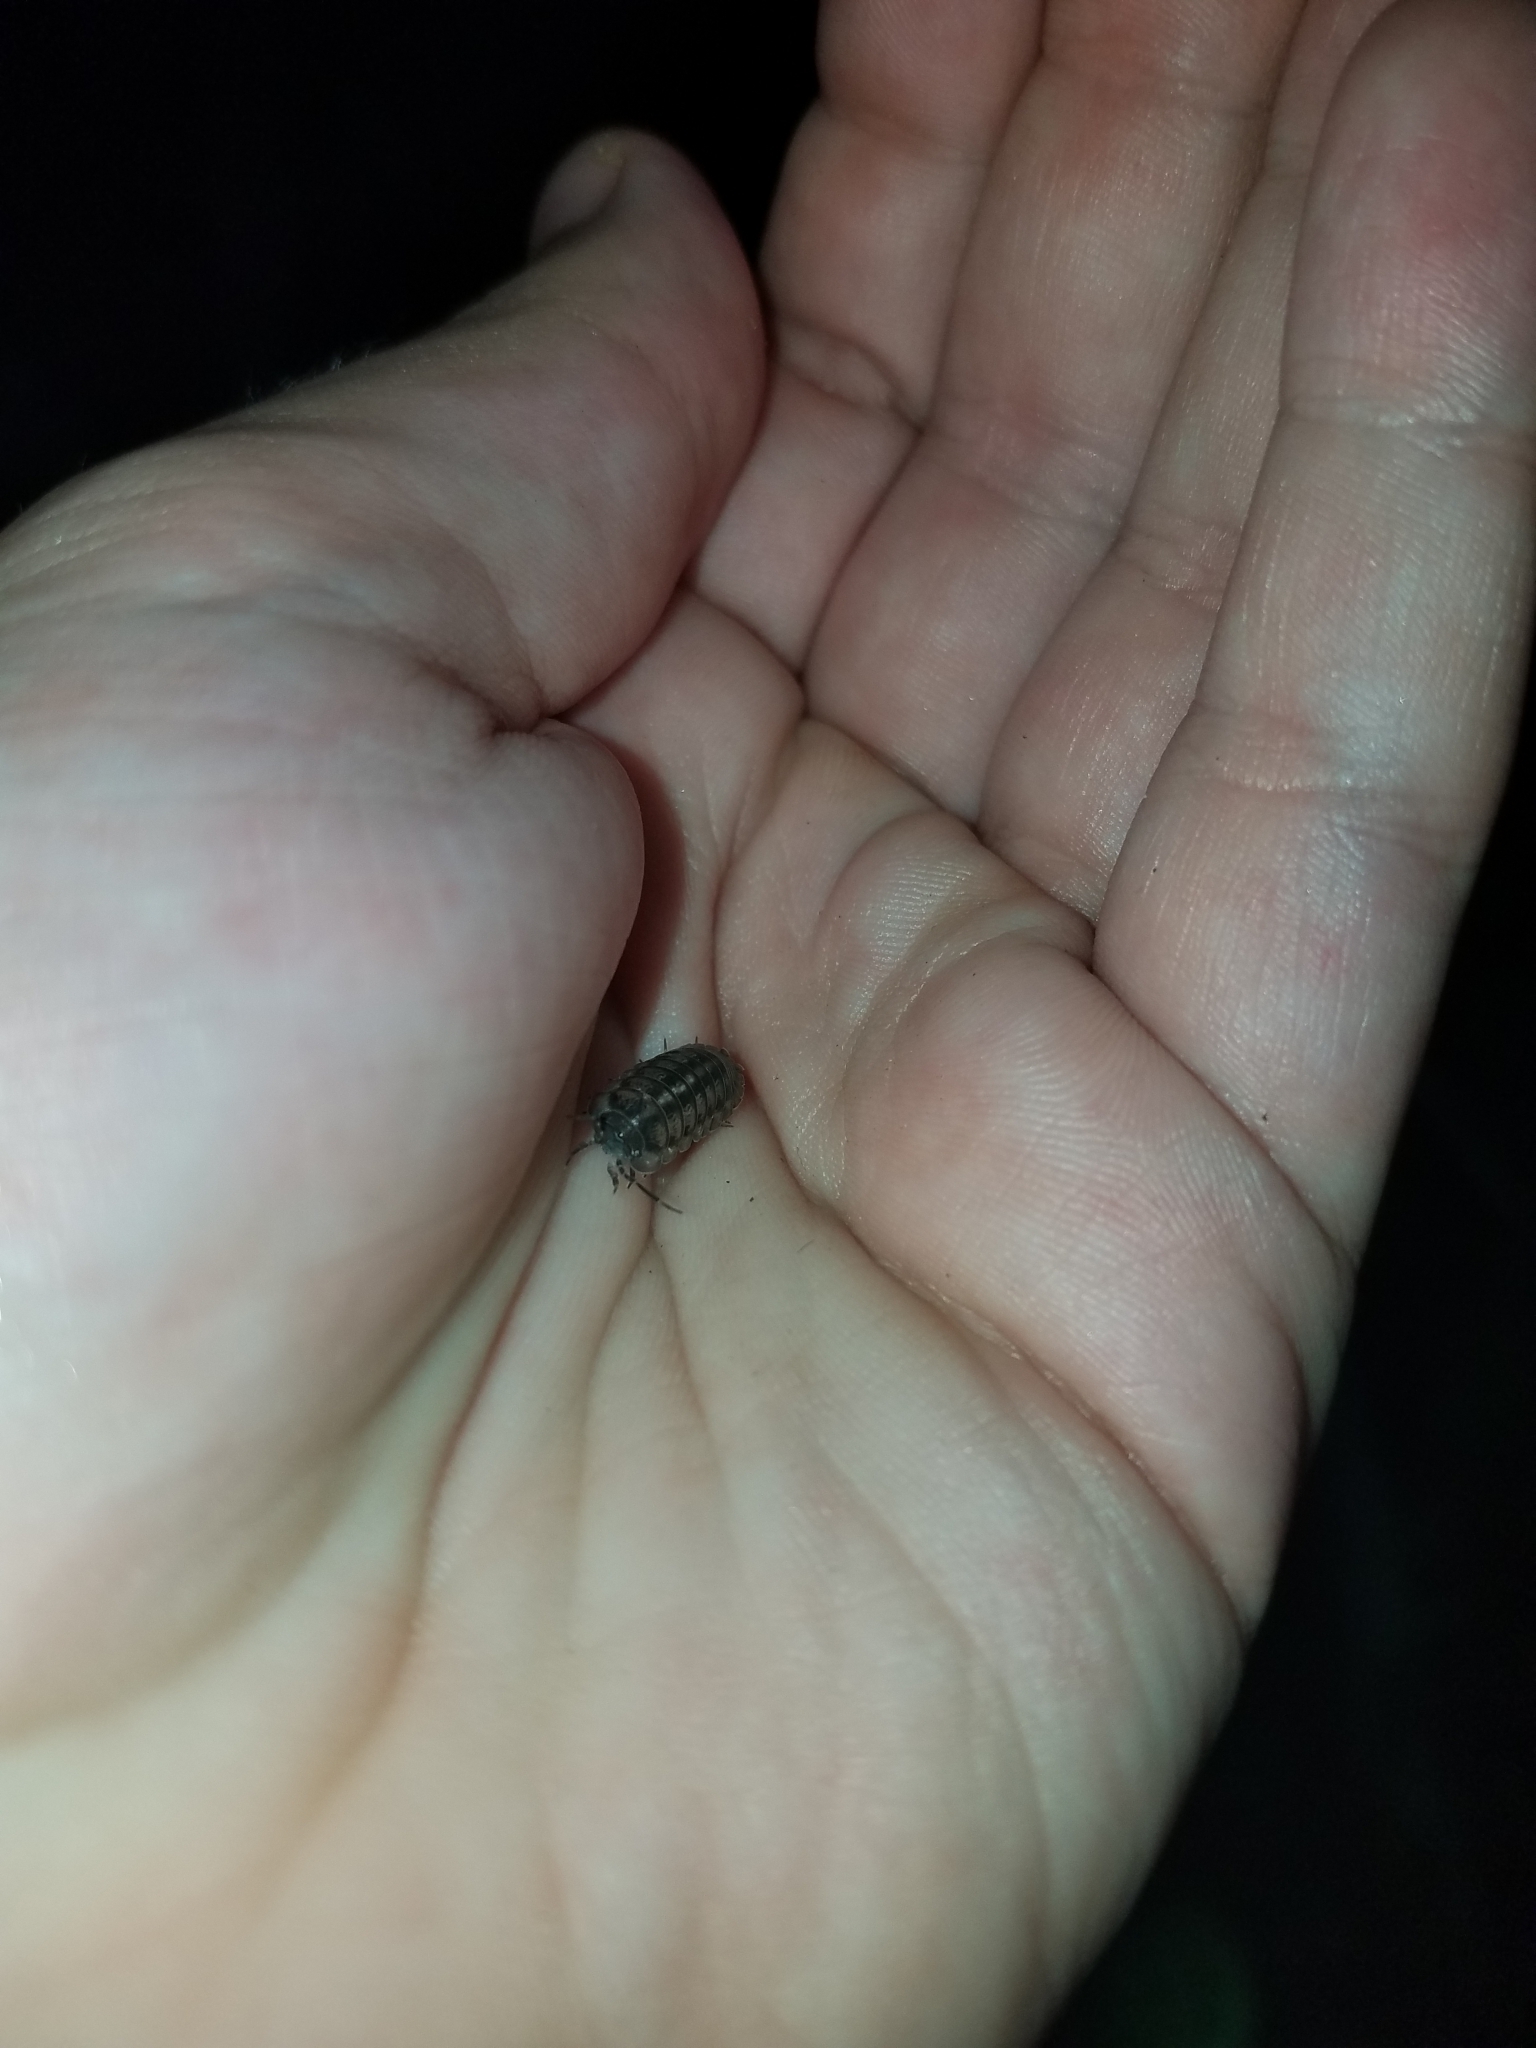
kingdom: Animalia
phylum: Arthropoda
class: Malacostraca
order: Isopoda
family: Armadillidiidae
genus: Armadillidium
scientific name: Armadillidium nasatum
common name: Isopod
